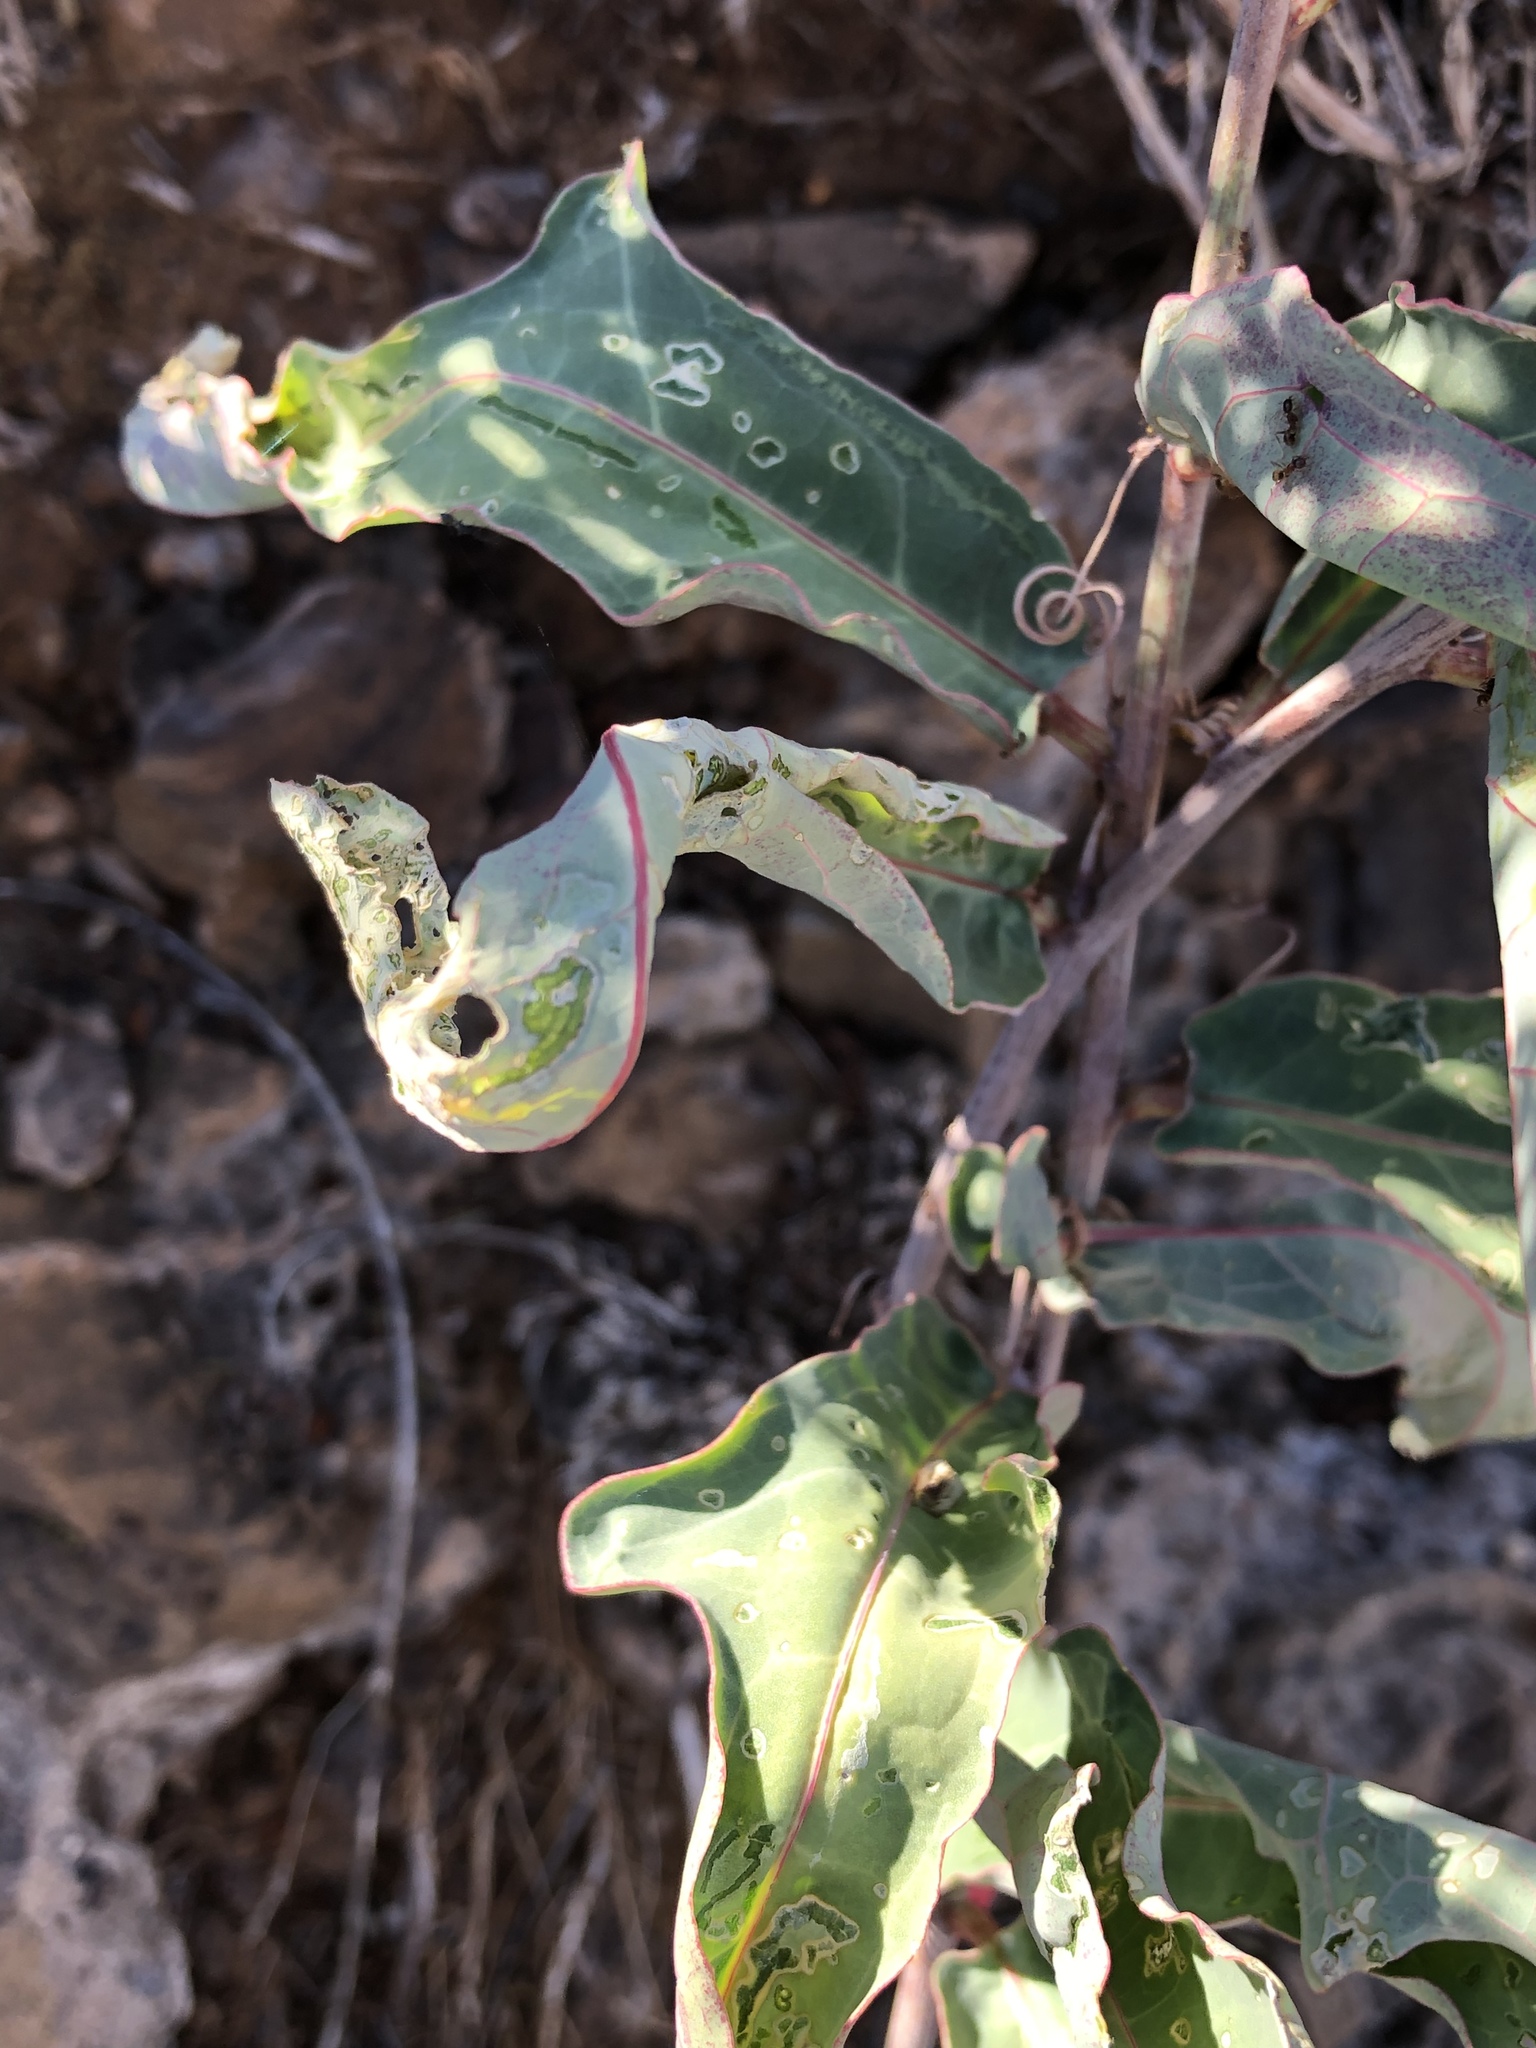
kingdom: Plantae
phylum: Tracheophyta
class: Magnoliopsida
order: Malpighiales
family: Passifloraceae
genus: Adenia
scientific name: Adenia repanda
